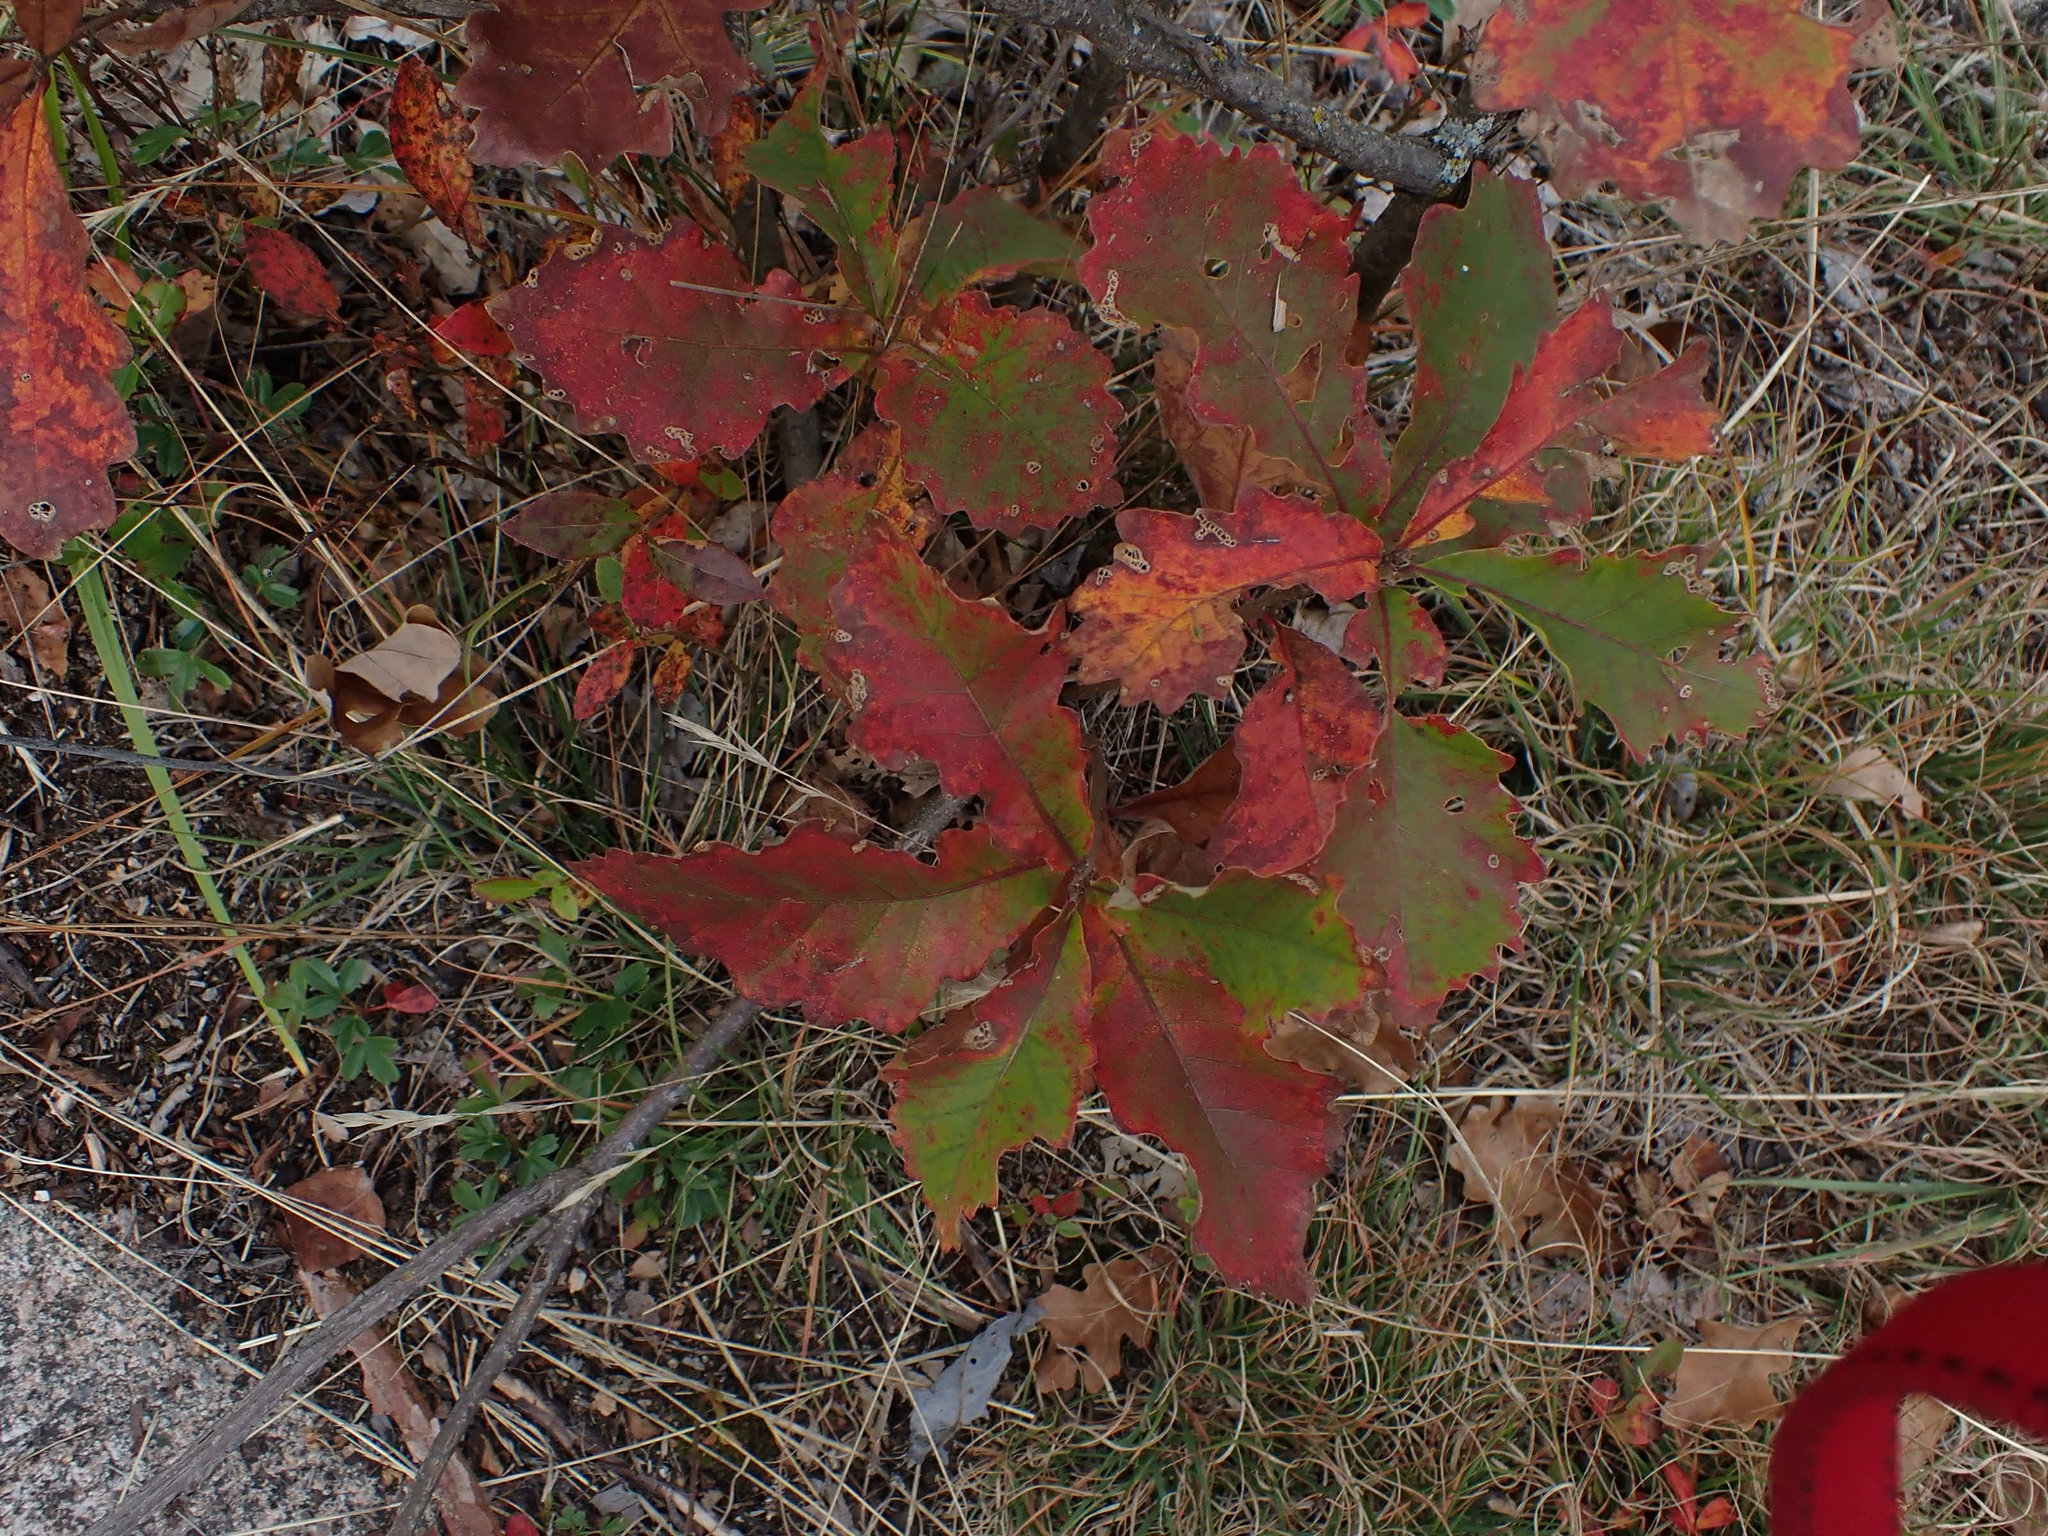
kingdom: Plantae
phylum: Tracheophyta
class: Magnoliopsida
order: Fagales
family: Fagaceae
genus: Quercus
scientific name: Quercus macrocarpa
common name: Bur oak
